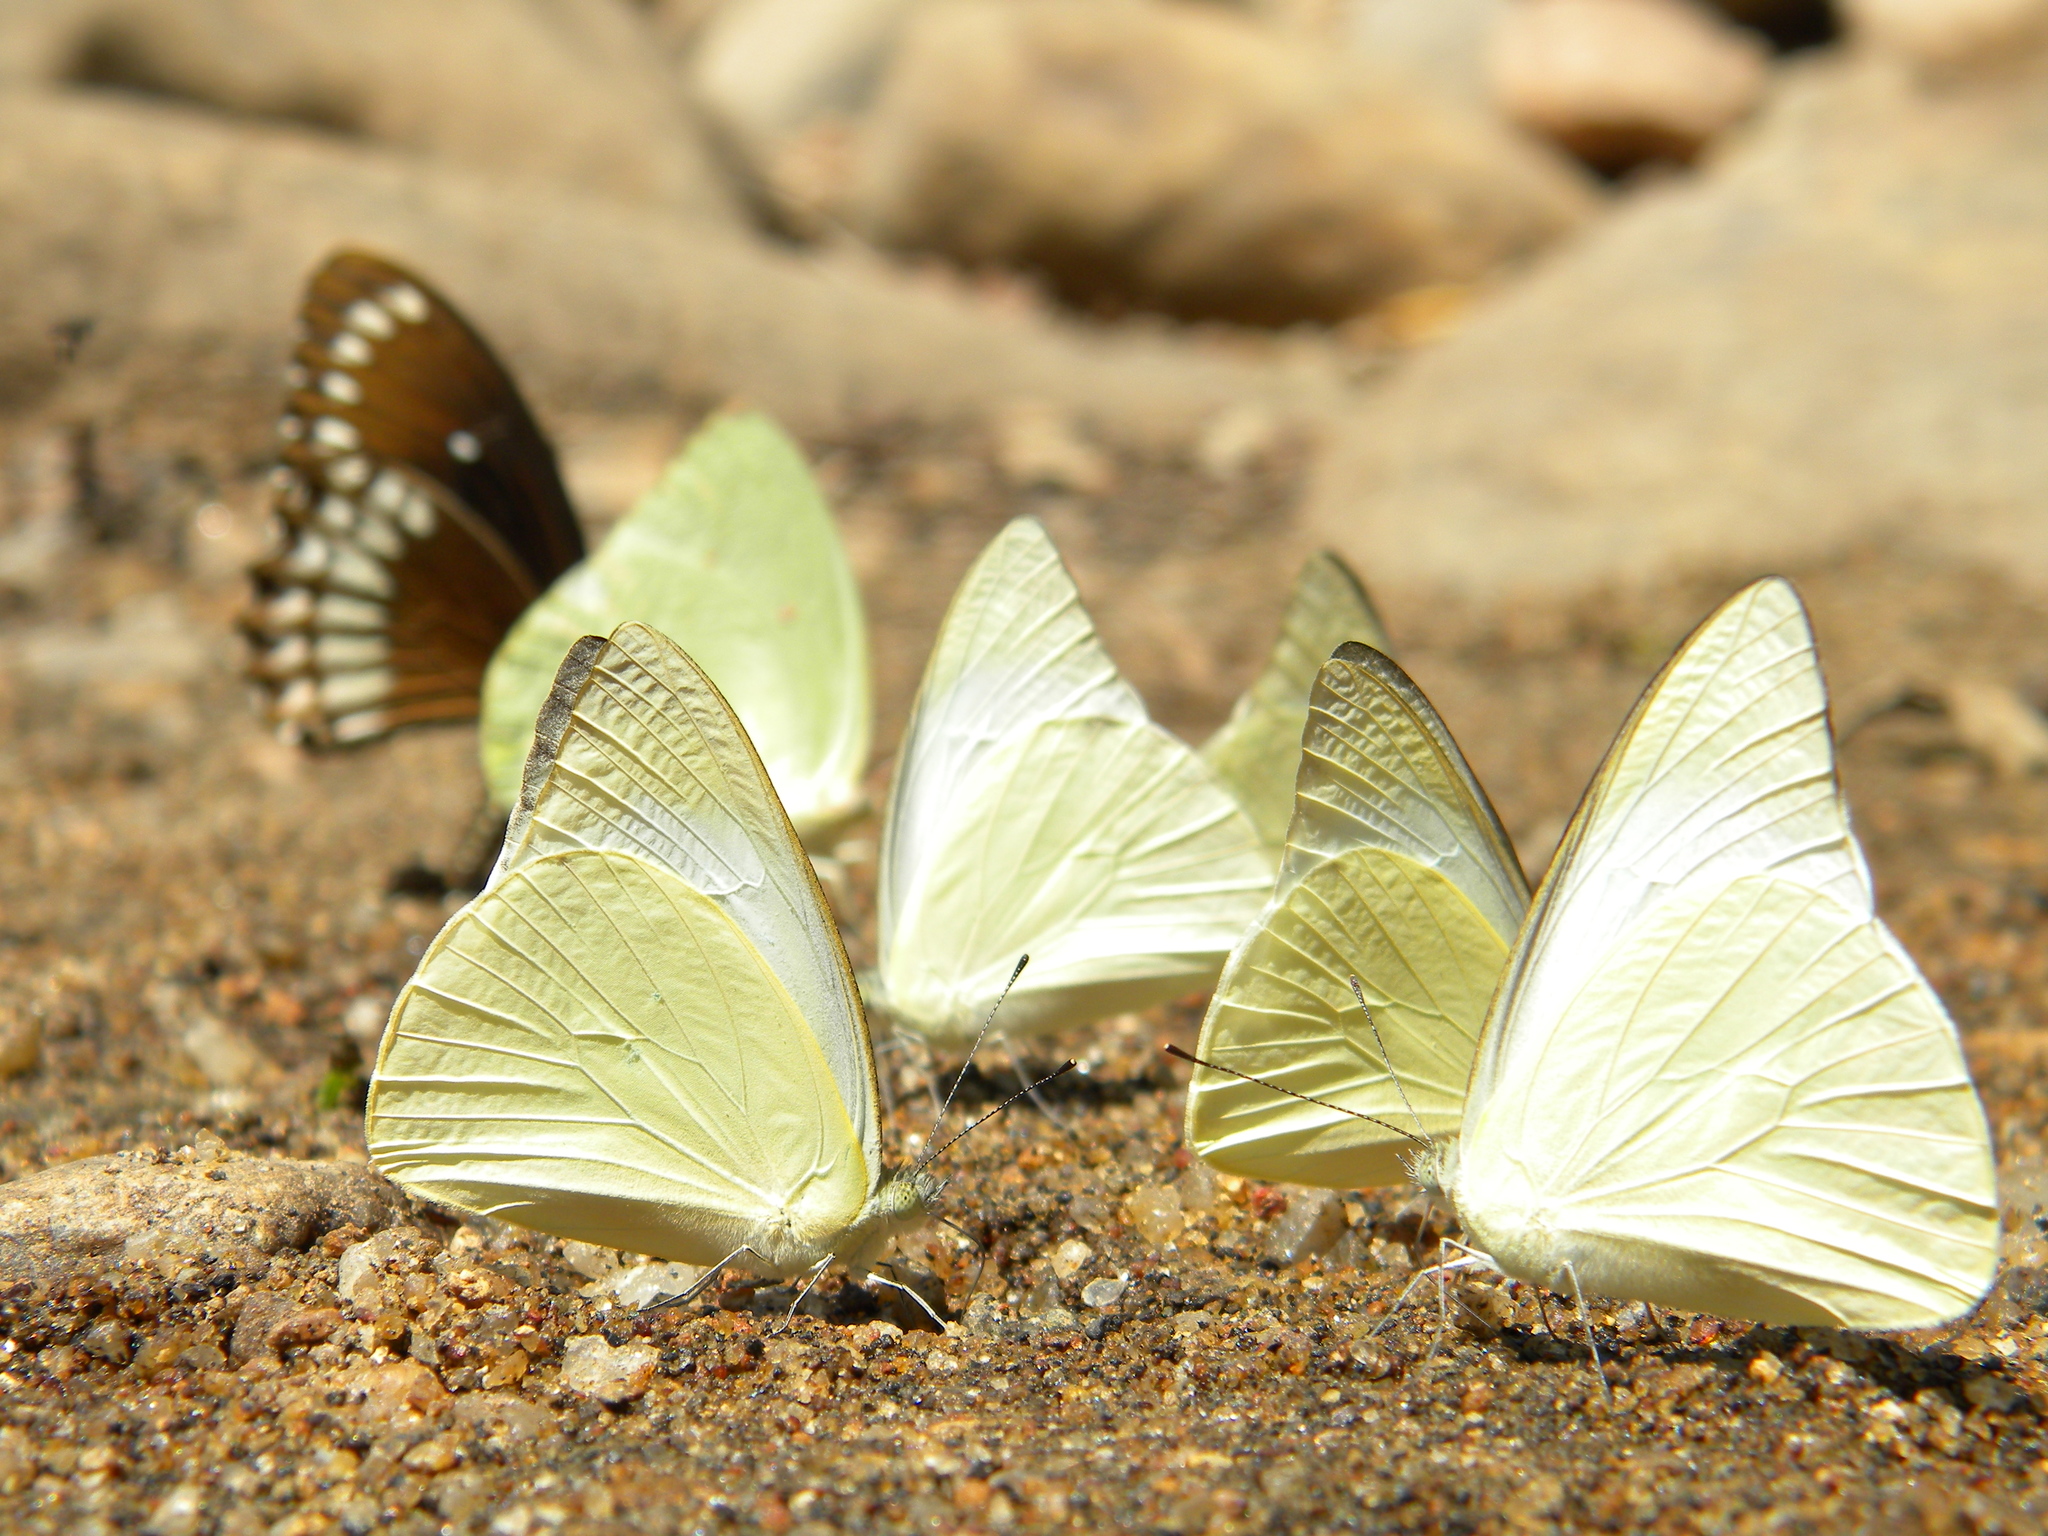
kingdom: Animalia
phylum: Arthropoda
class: Insecta
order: Lepidoptera
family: Pieridae
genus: Appias
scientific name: Appias albina
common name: Common albatross
